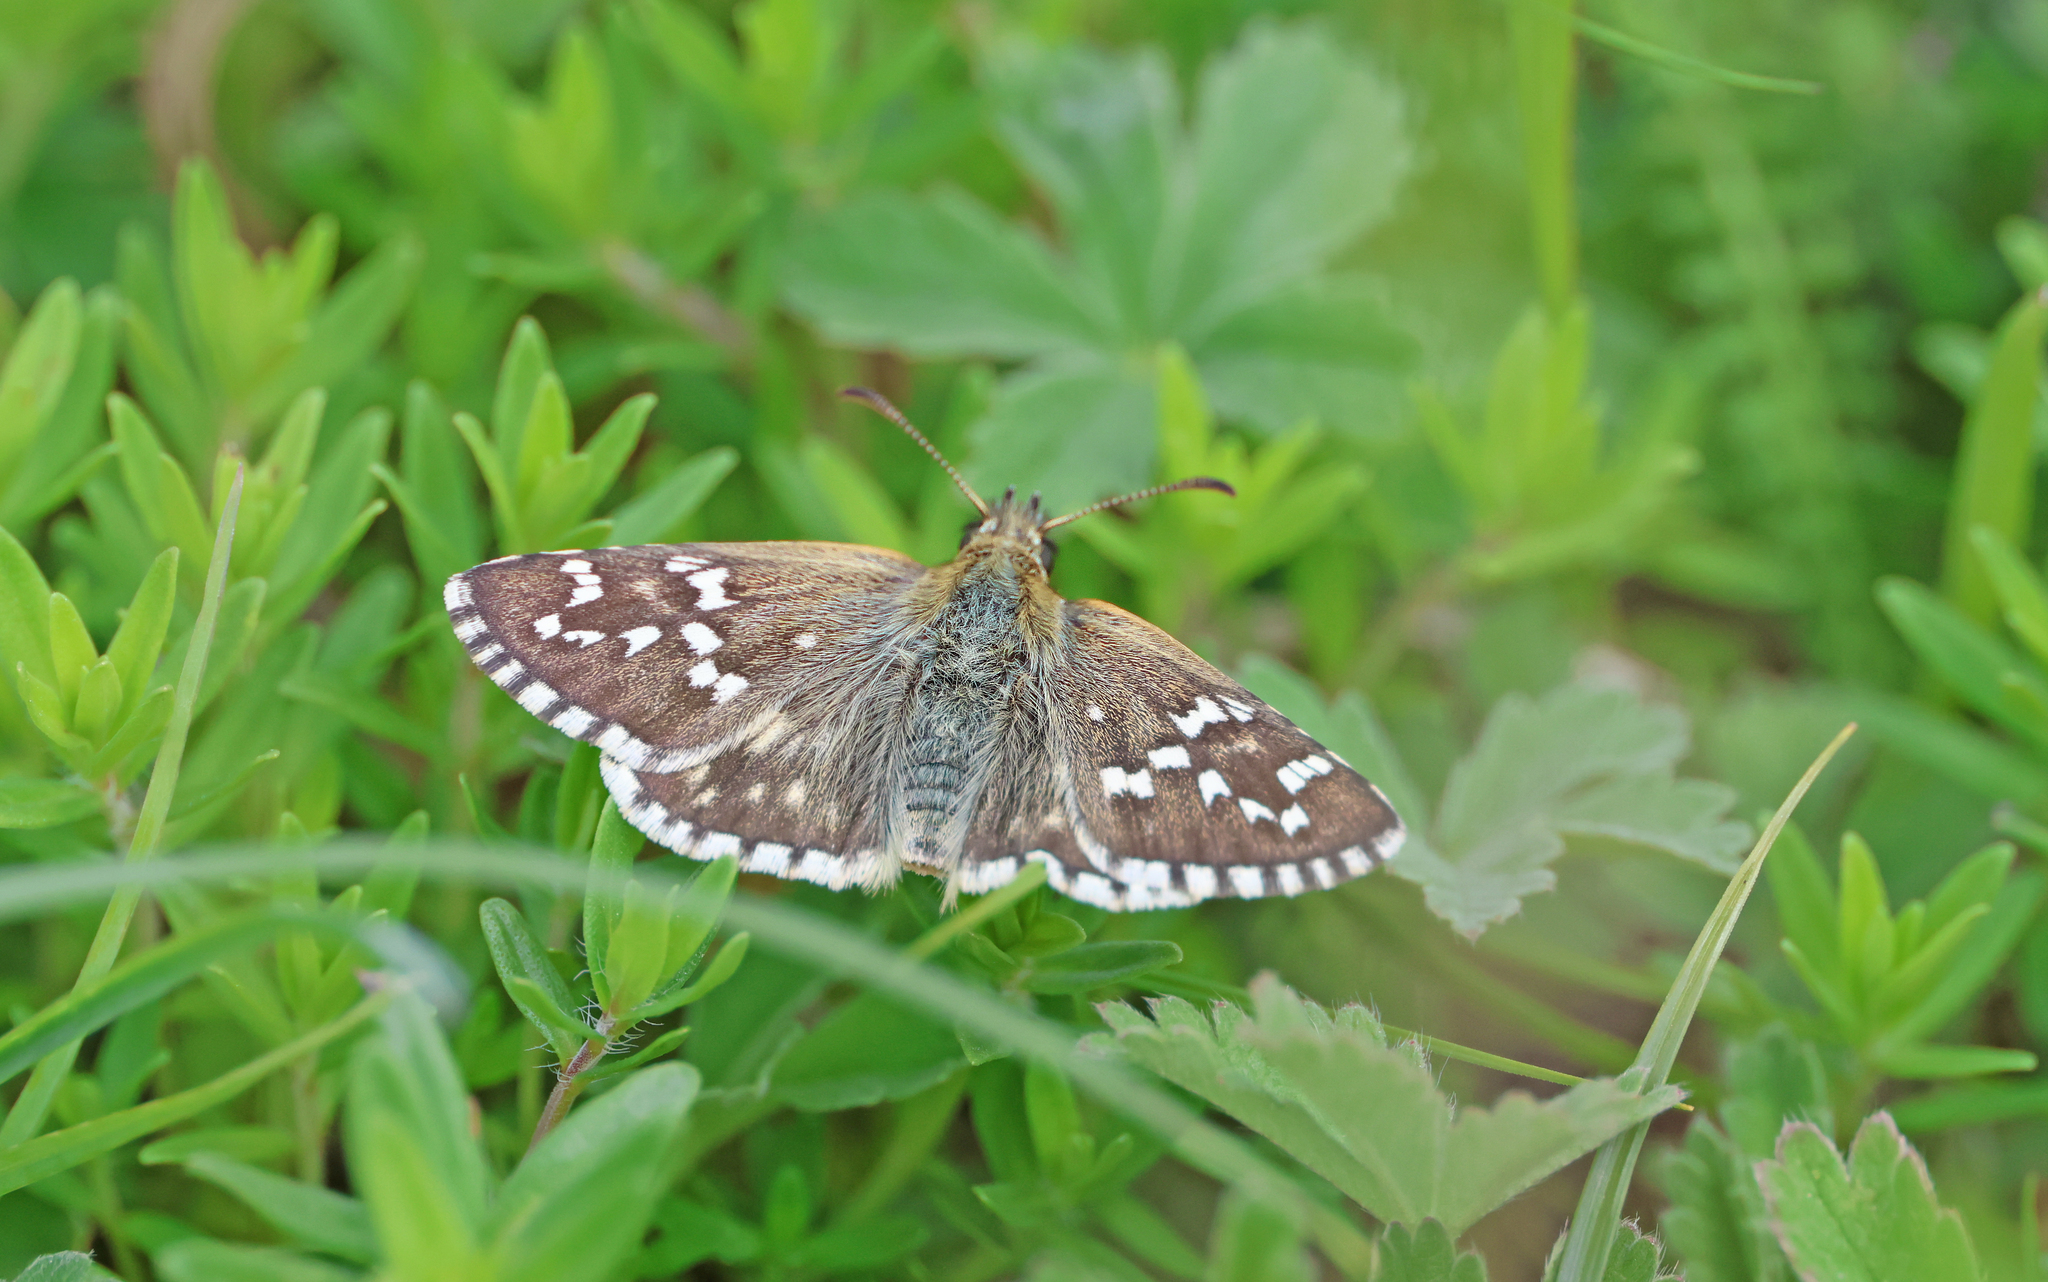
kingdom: Animalia
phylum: Arthropoda
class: Insecta
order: Lepidoptera
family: Hesperiidae
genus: Pyrgus
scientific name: Pyrgus fritillarius
